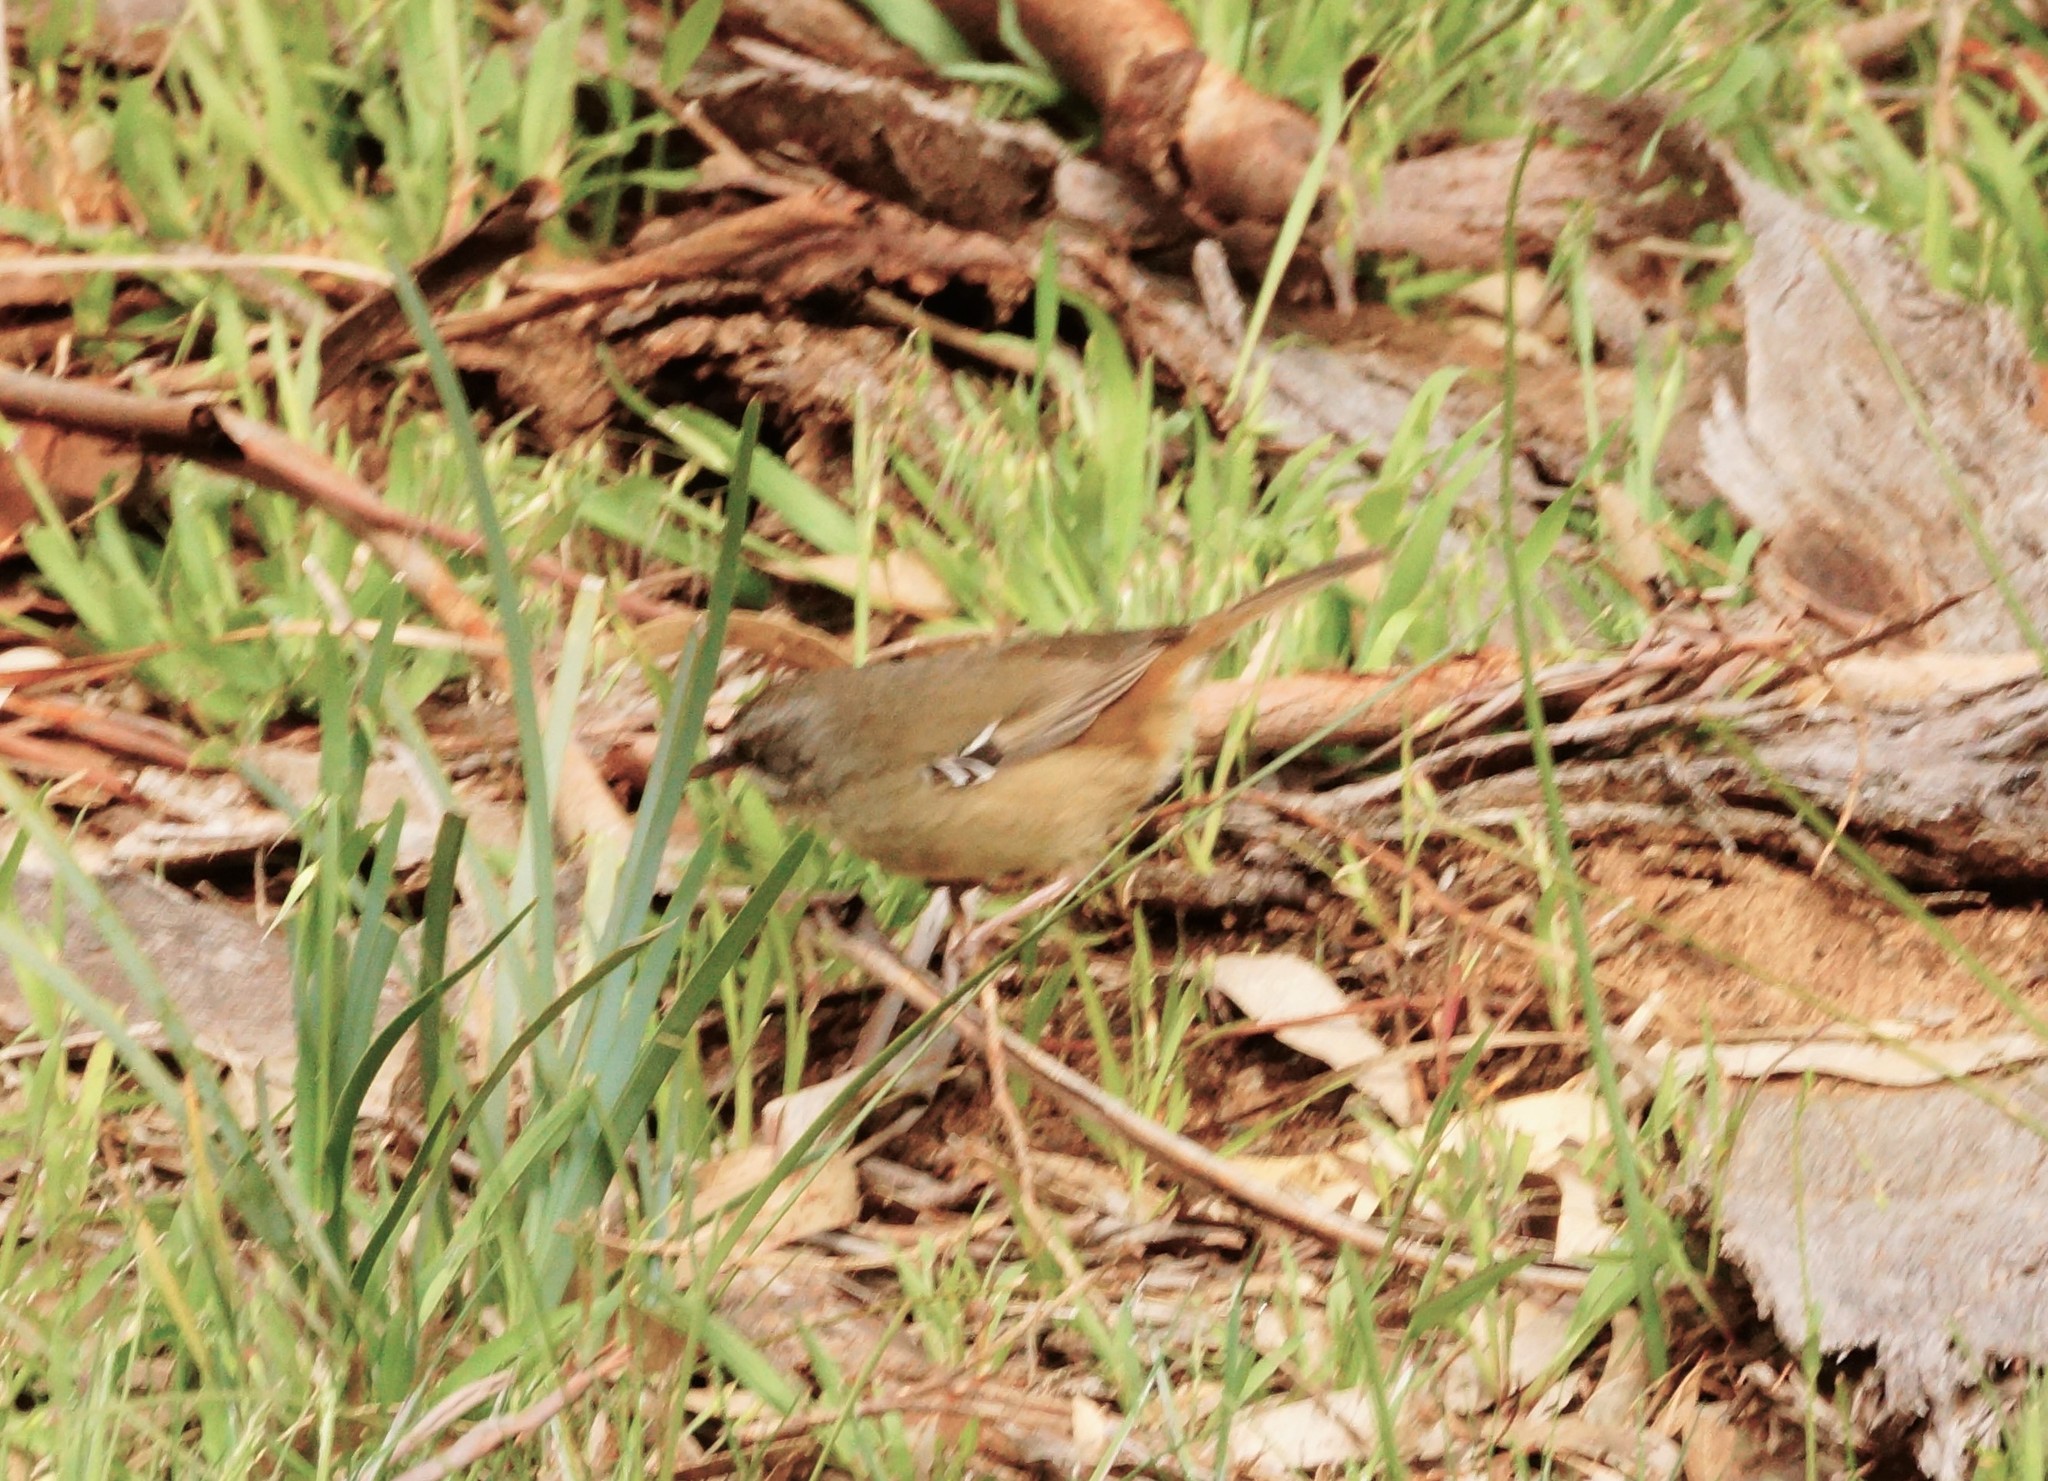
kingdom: Animalia
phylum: Chordata
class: Aves
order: Passeriformes
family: Acanthizidae
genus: Sericornis
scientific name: Sericornis frontalis
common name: White-browed scrubwren
